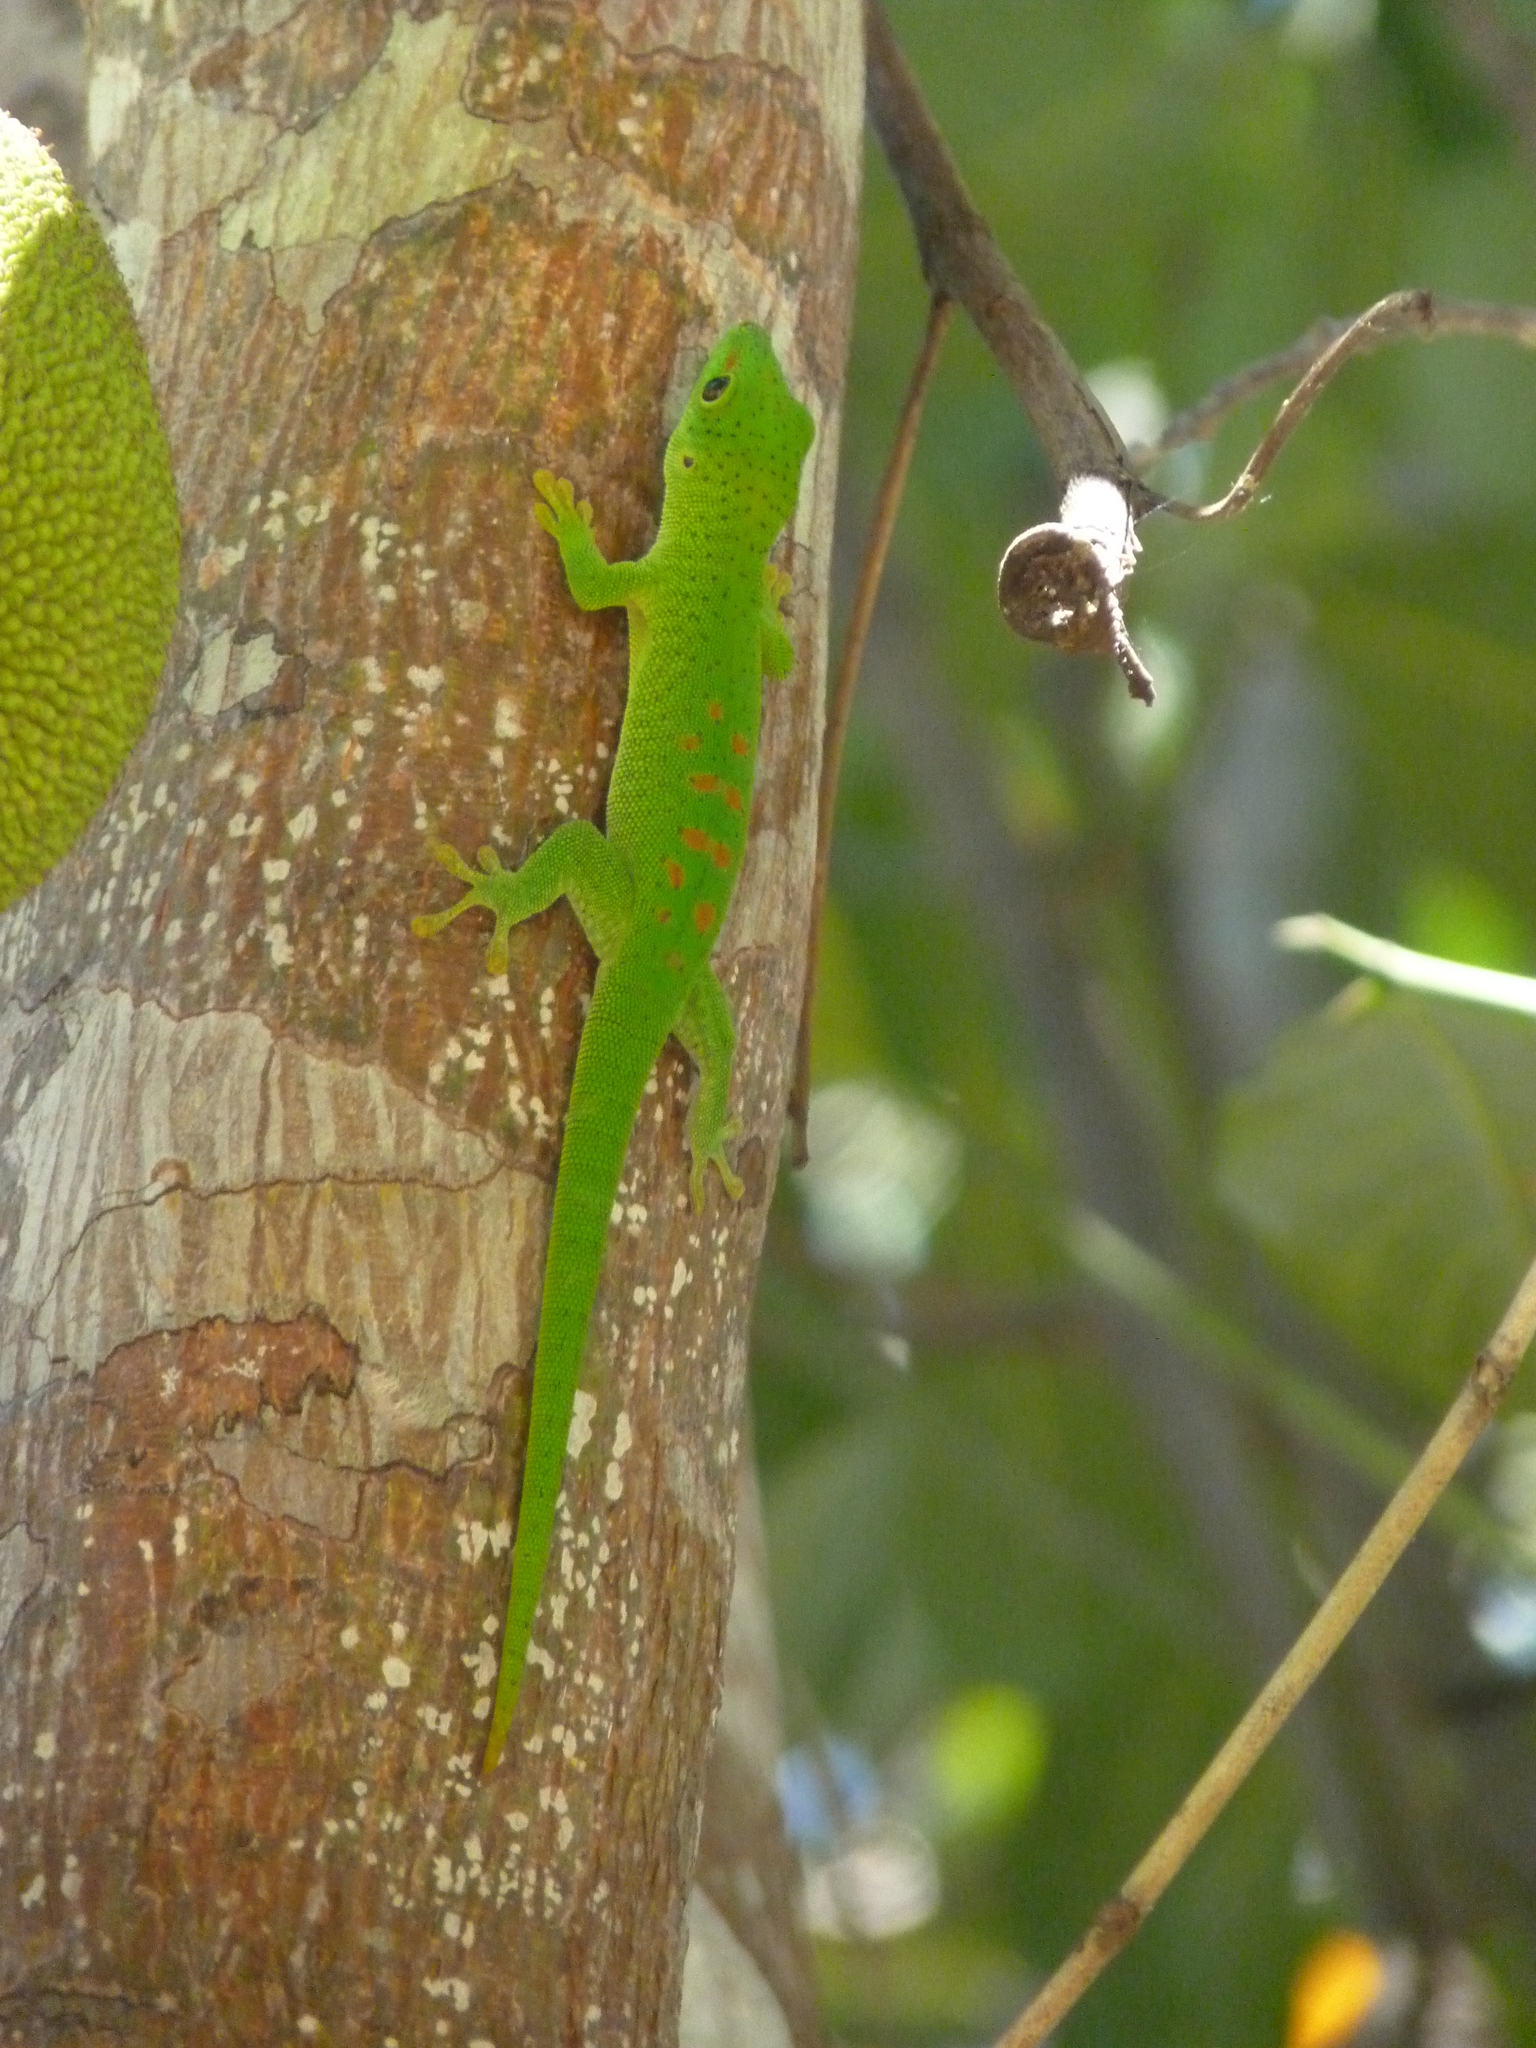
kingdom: Animalia
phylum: Chordata
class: Squamata
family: Gekkonidae
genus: Phelsuma
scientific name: Phelsuma grandis
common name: Madagascar giant day gecko
